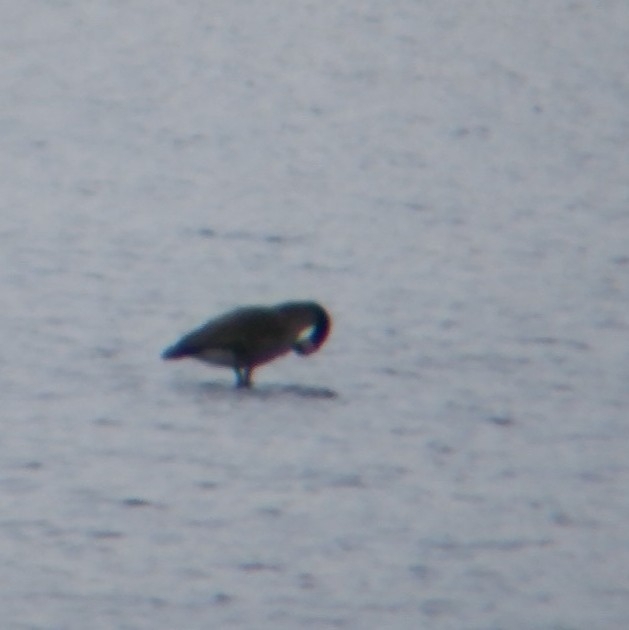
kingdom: Animalia
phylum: Chordata
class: Aves
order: Anseriformes
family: Anatidae
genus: Branta
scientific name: Branta canadensis
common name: Canada goose
